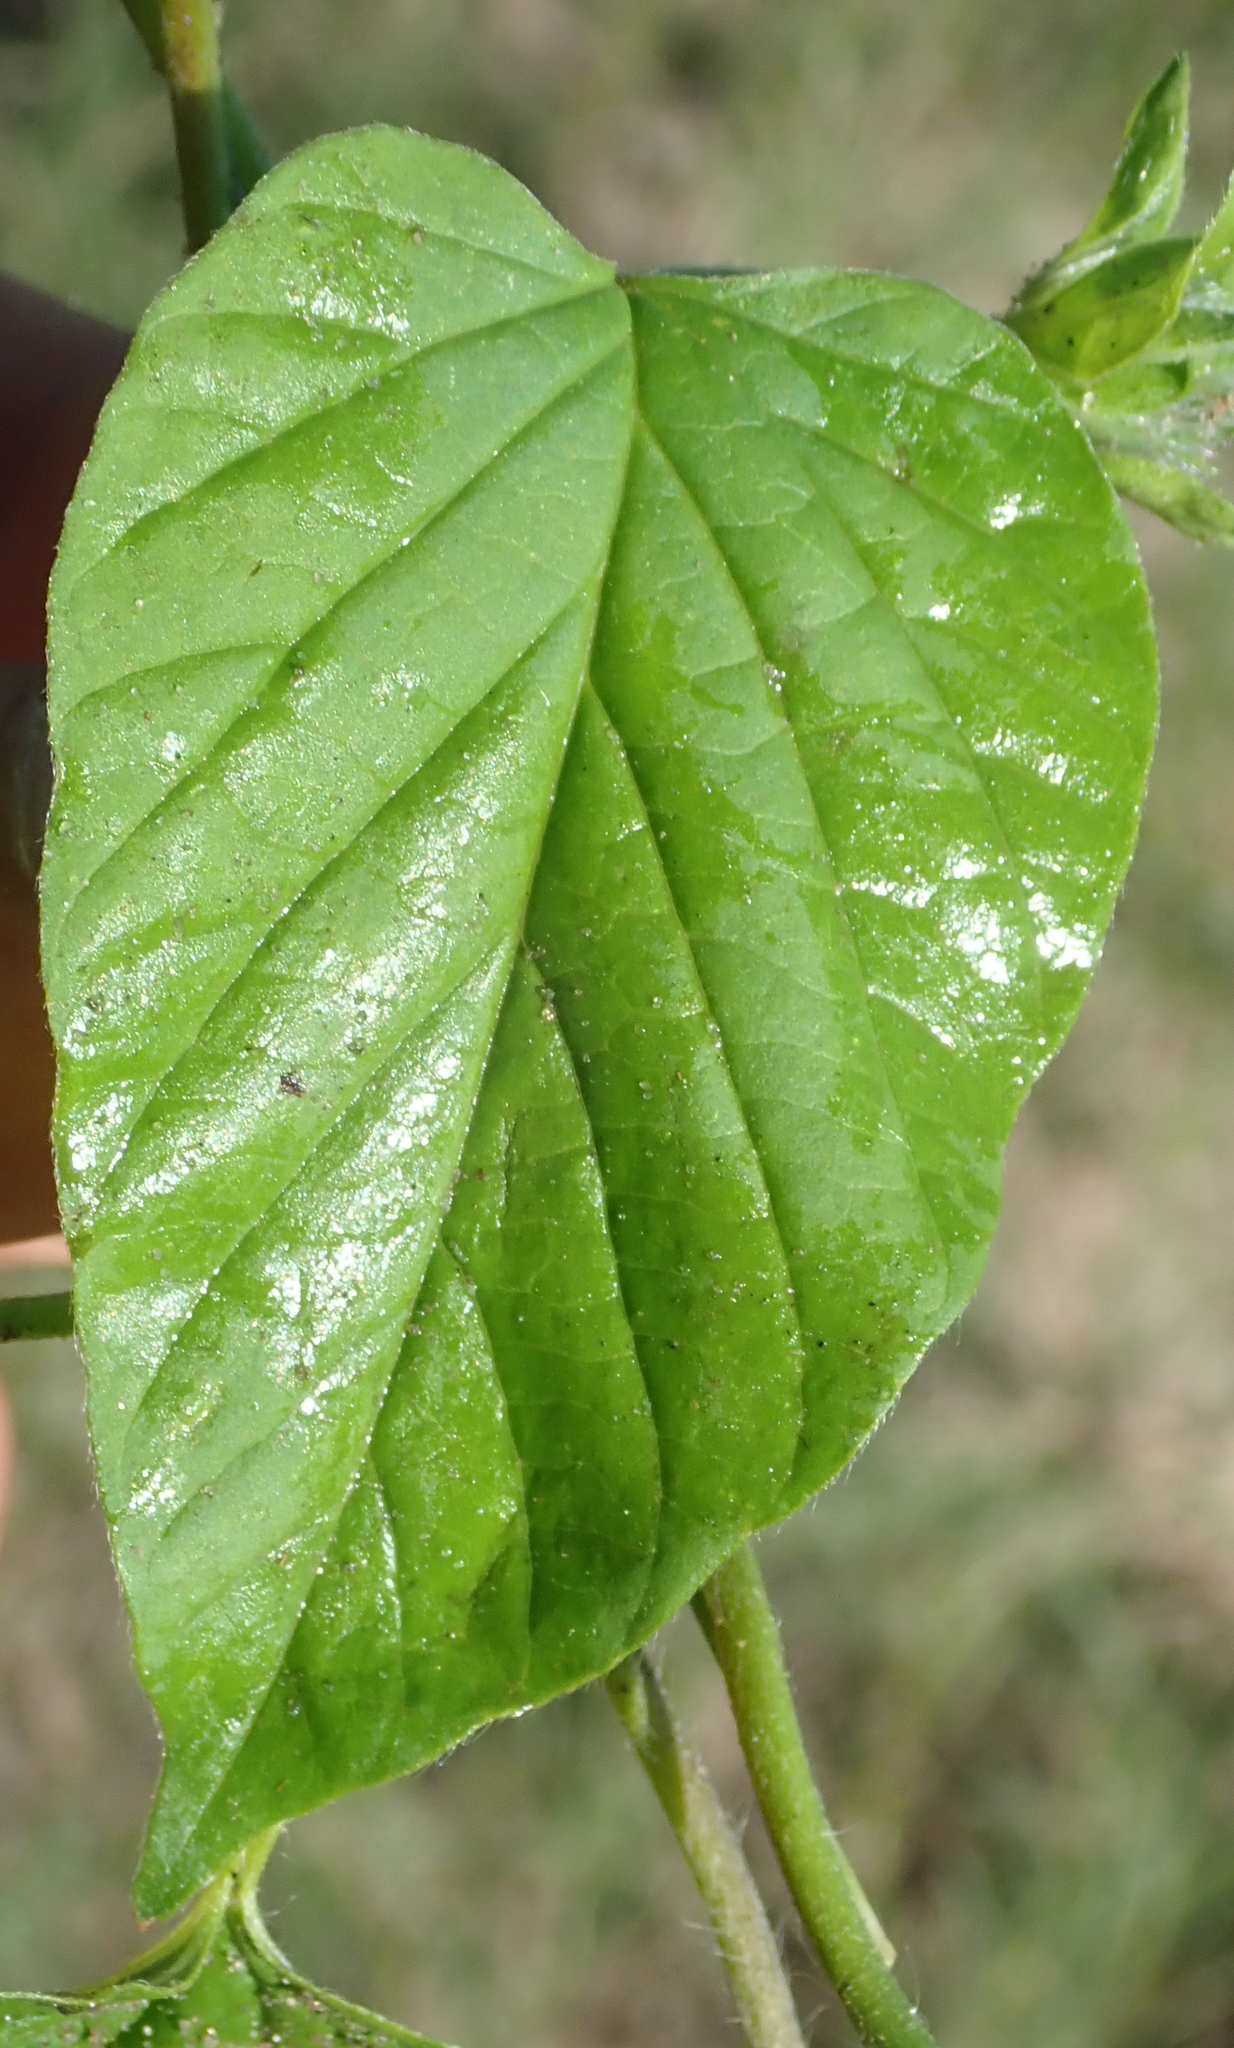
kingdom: Plantae
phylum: Tracheophyta
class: Magnoliopsida
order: Solanales
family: Convolvulaceae
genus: Jacquemontia
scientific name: Jacquemontia tamnifolia
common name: Hairy clustervine
